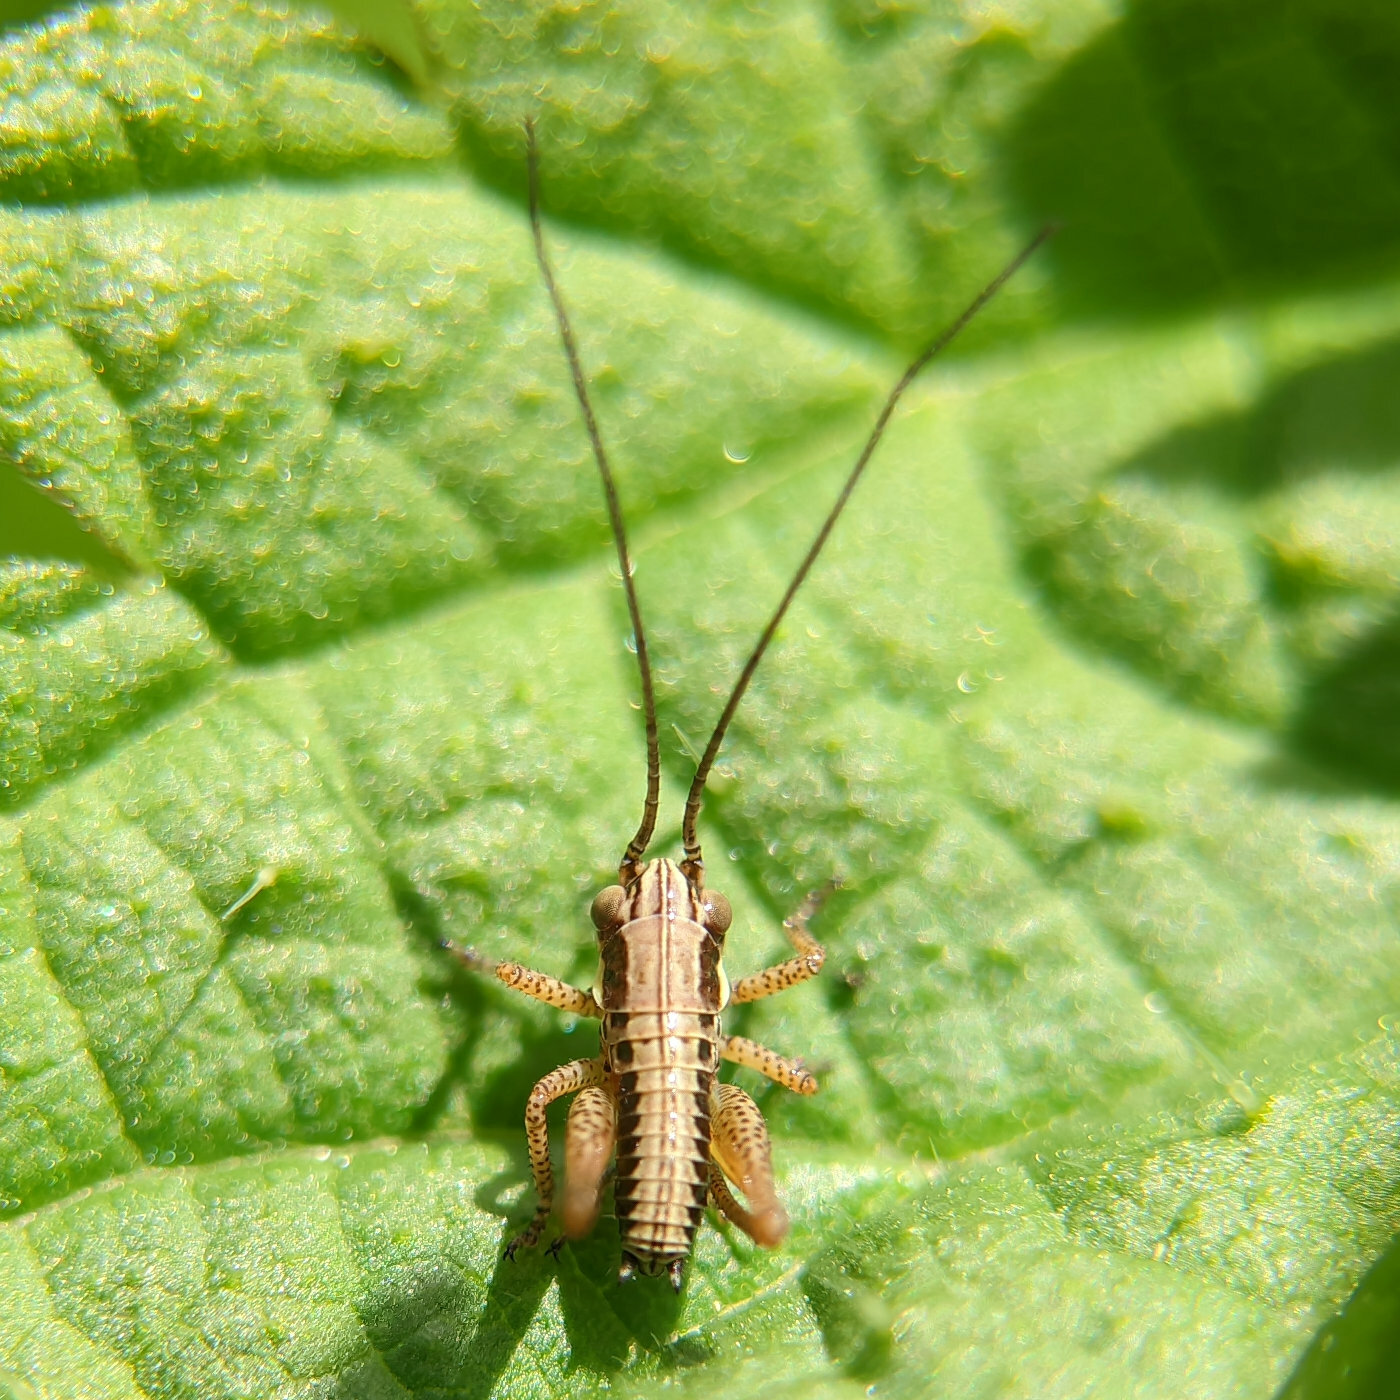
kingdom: Animalia
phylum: Arthropoda
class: Insecta
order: Orthoptera
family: Tettigoniidae
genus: Roeseliana
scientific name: Roeseliana roeselii
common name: Roesel's bush cricket
